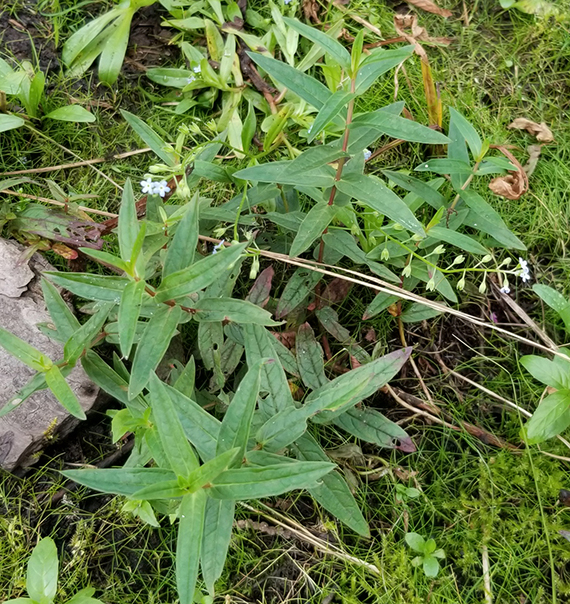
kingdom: Plantae
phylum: Tracheophyta
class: Magnoliopsida
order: Myrtales
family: Lythraceae
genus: Lythrum
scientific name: Lythrum salicaria
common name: Purple loosestrife
